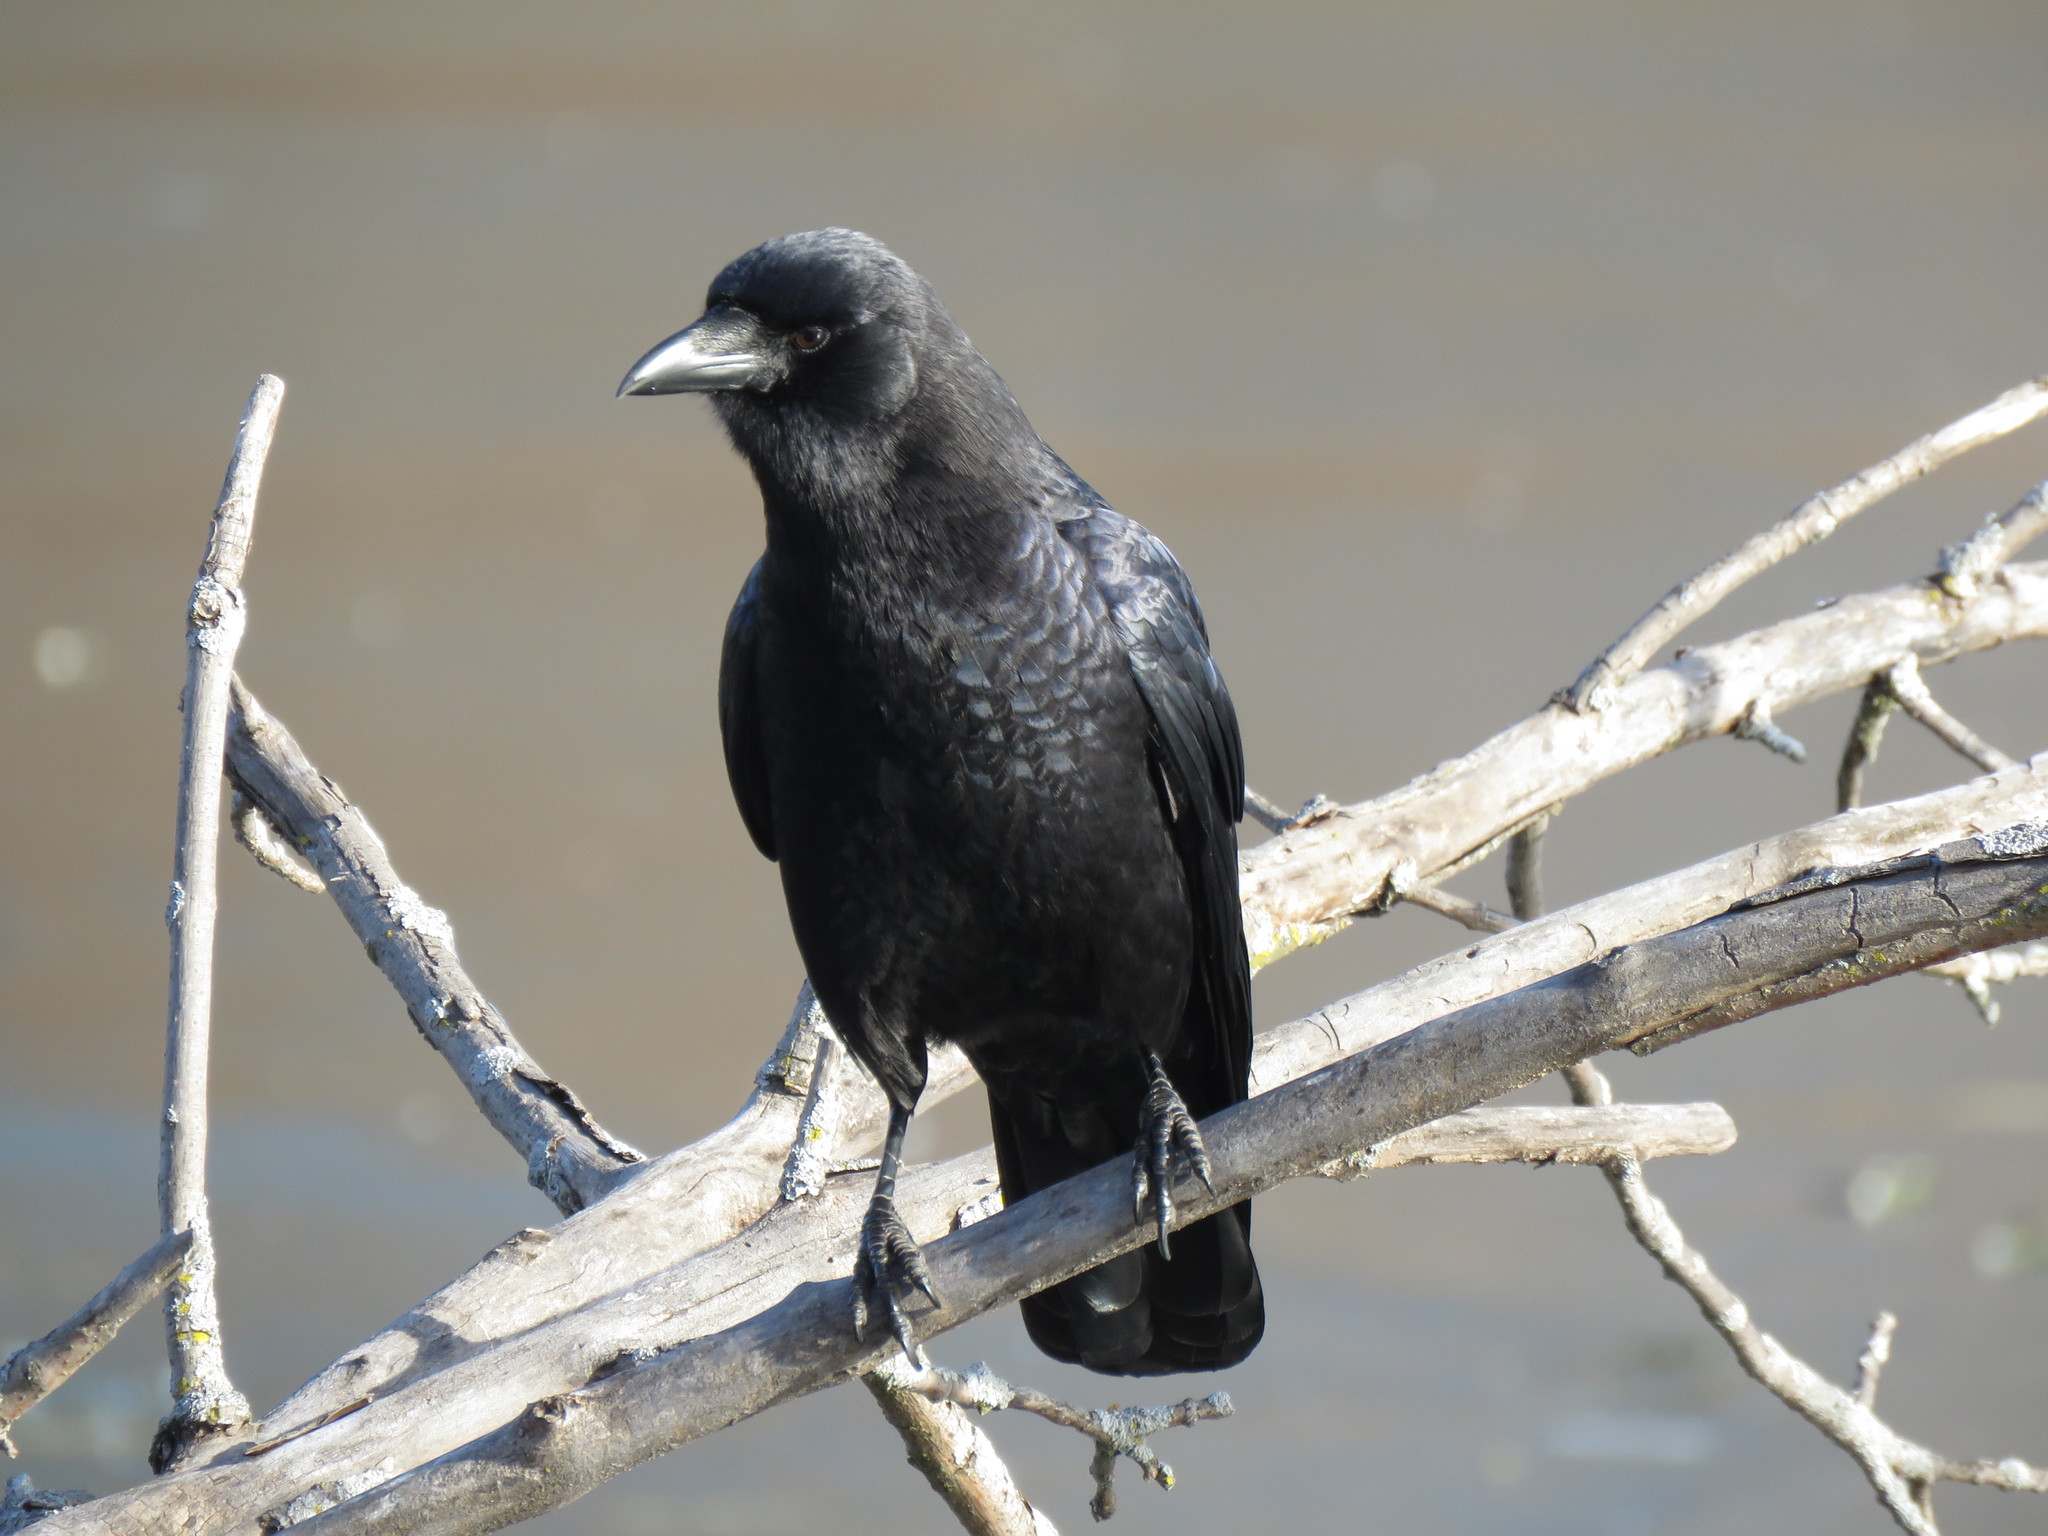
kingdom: Animalia
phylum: Chordata
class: Aves
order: Passeriformes
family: Corvidae
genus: Corvus
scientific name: Corvus brachyrhynchos
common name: American crow
